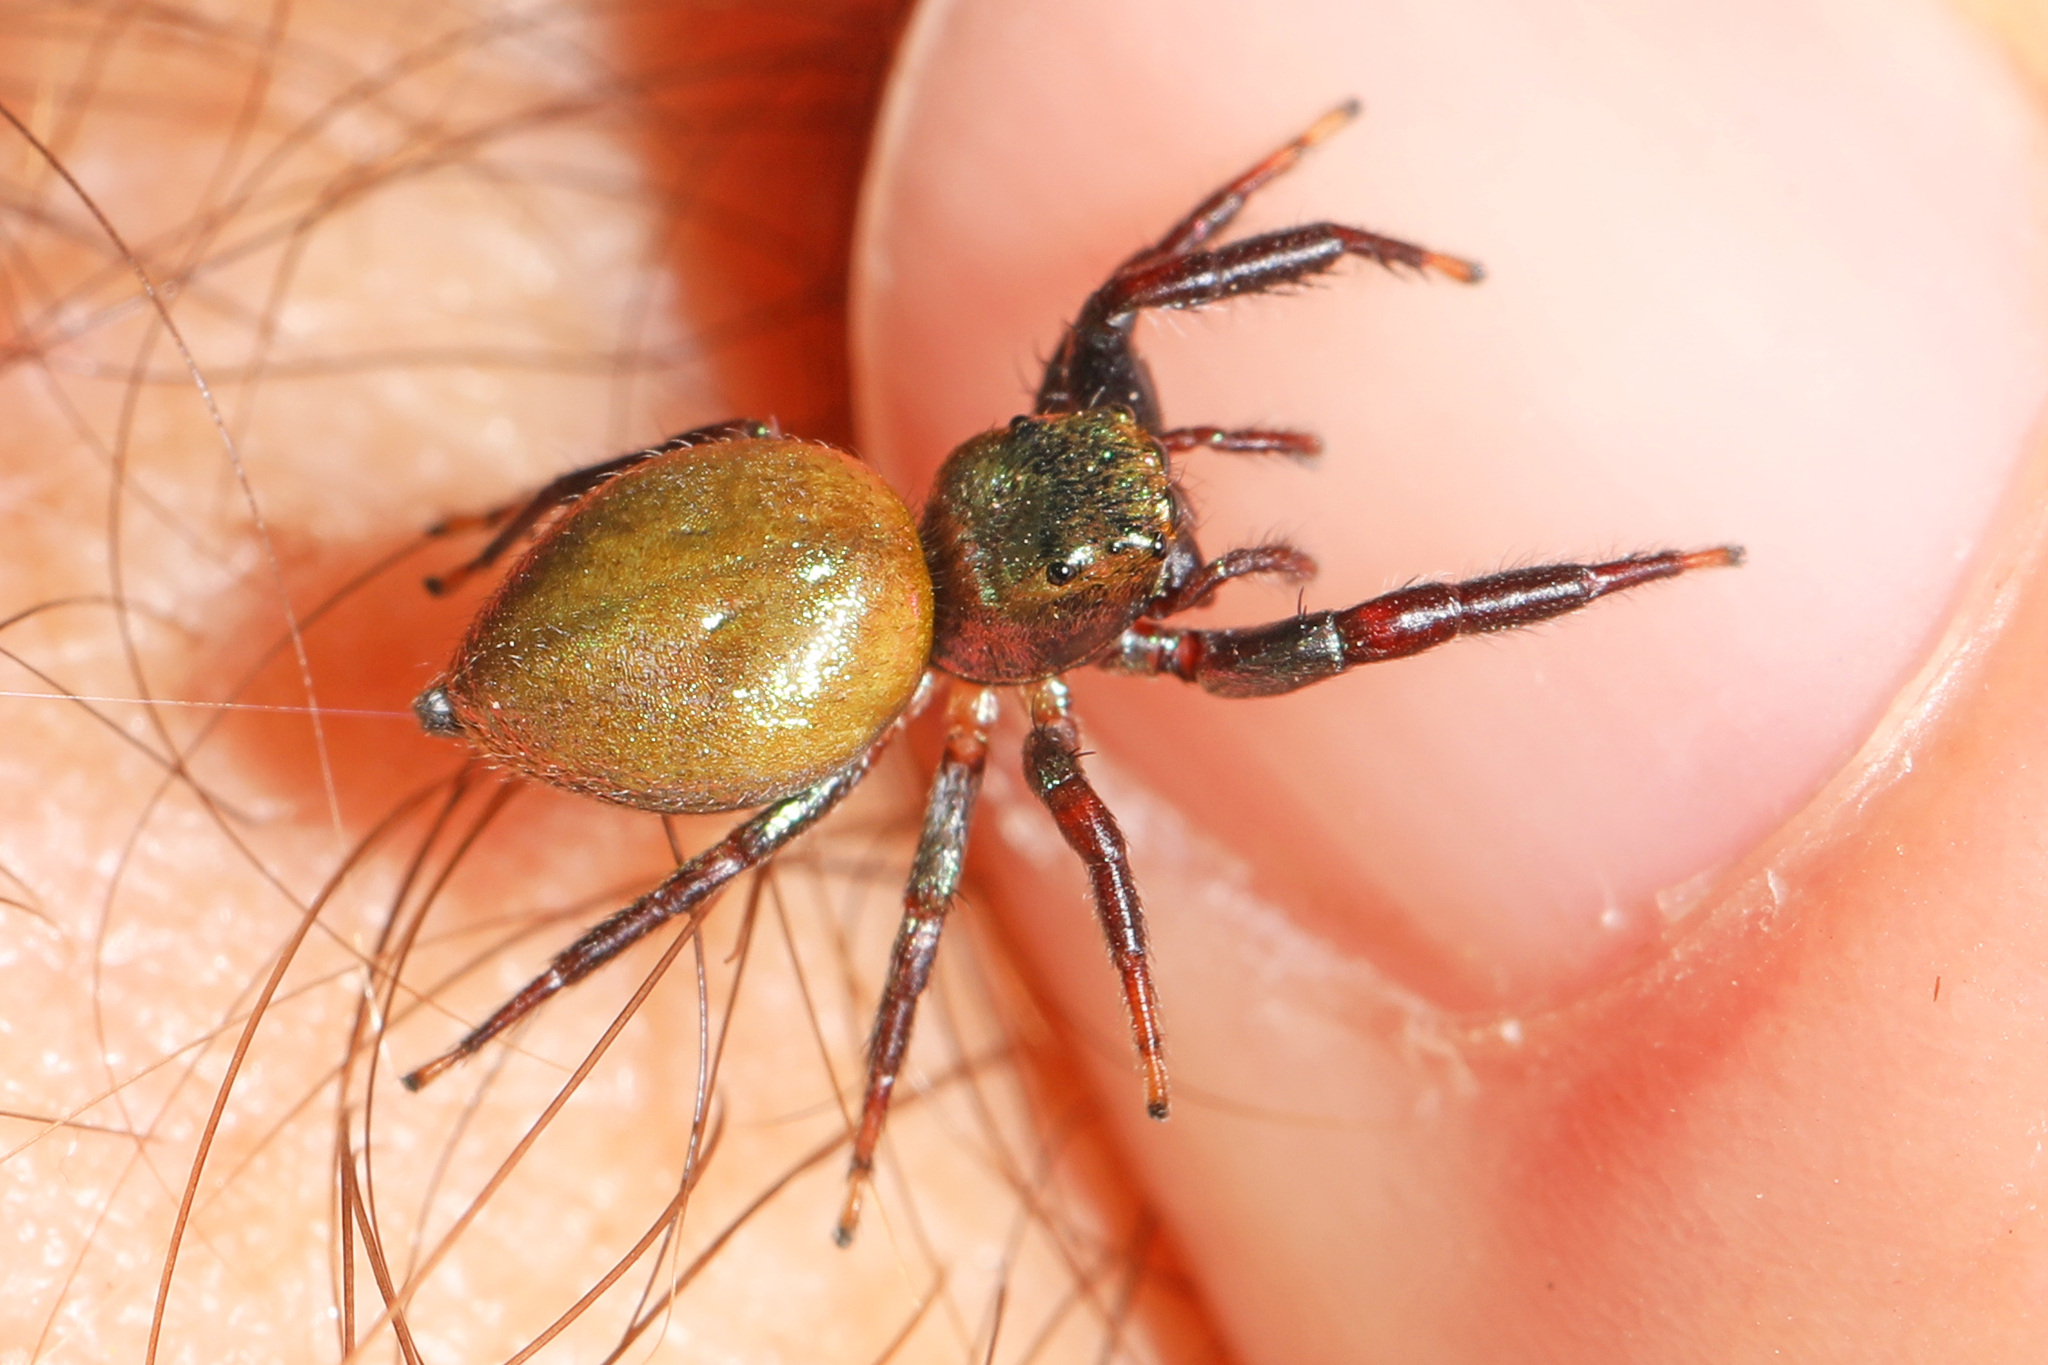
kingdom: Animalia
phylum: Arthropoda
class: Arachnida
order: Araneae
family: Salticidae
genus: Messua
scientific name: Messua limbata
